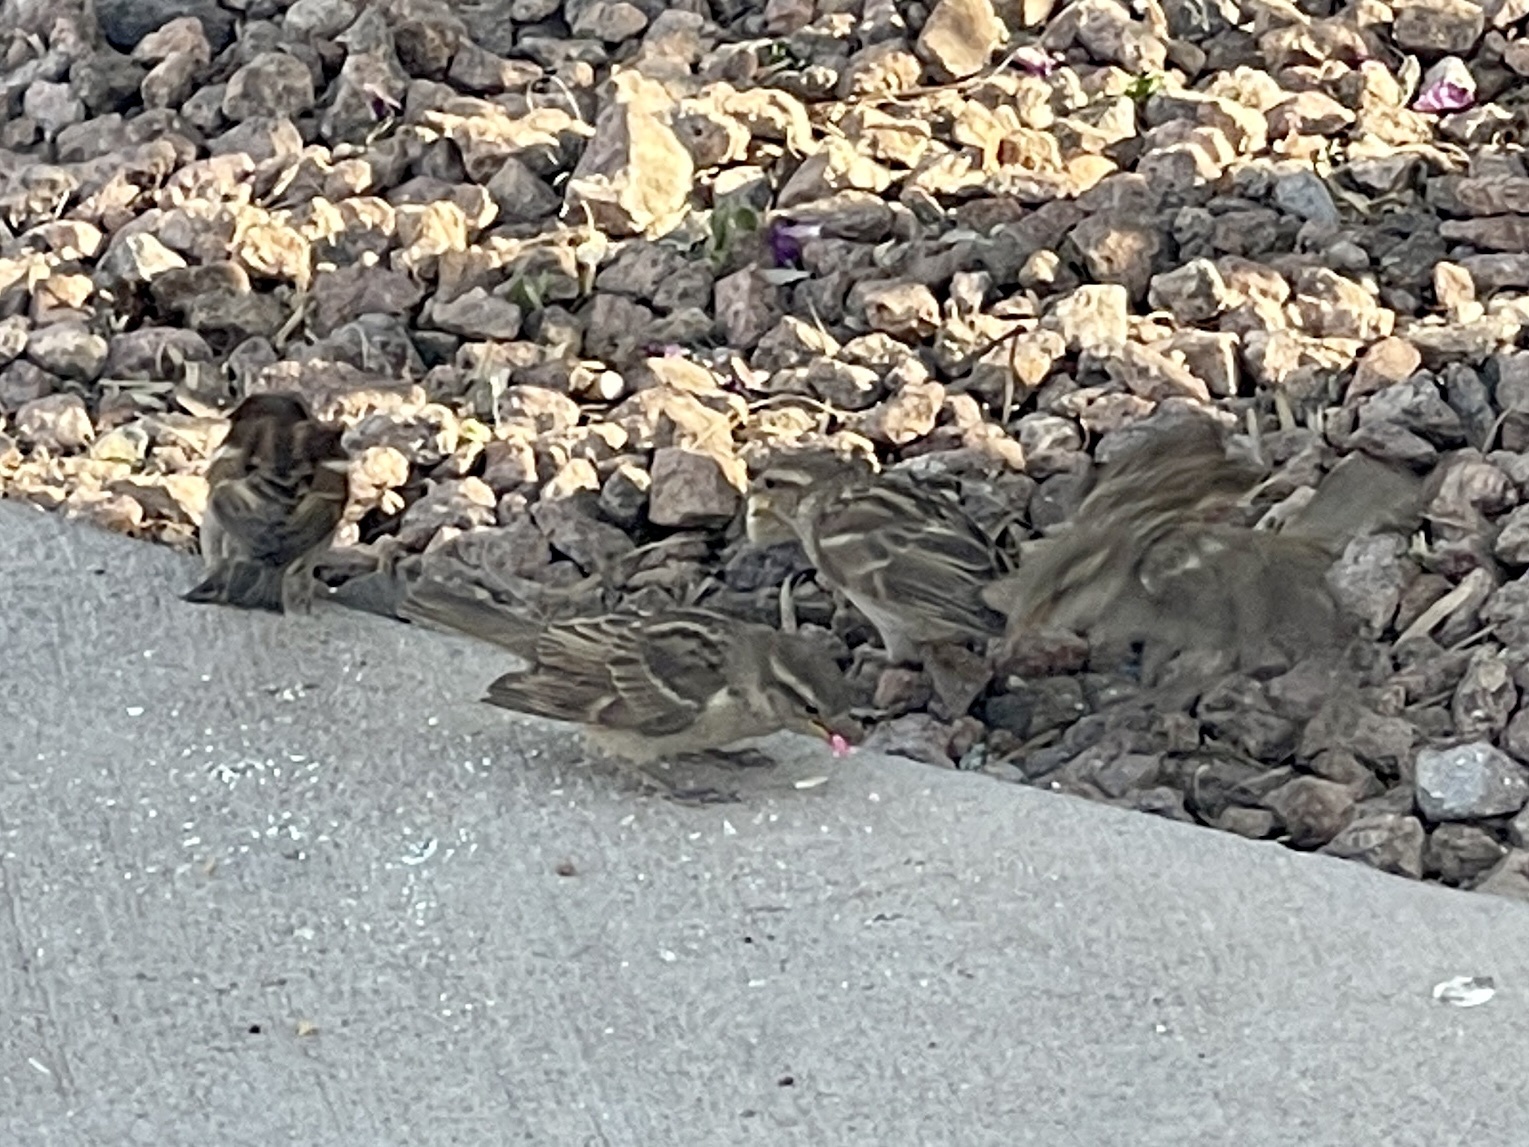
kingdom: Animalia
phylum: Chordata
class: Aves
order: Passeriformes
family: Passeridae
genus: Passer
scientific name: Passer domesticus
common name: House sparrow
